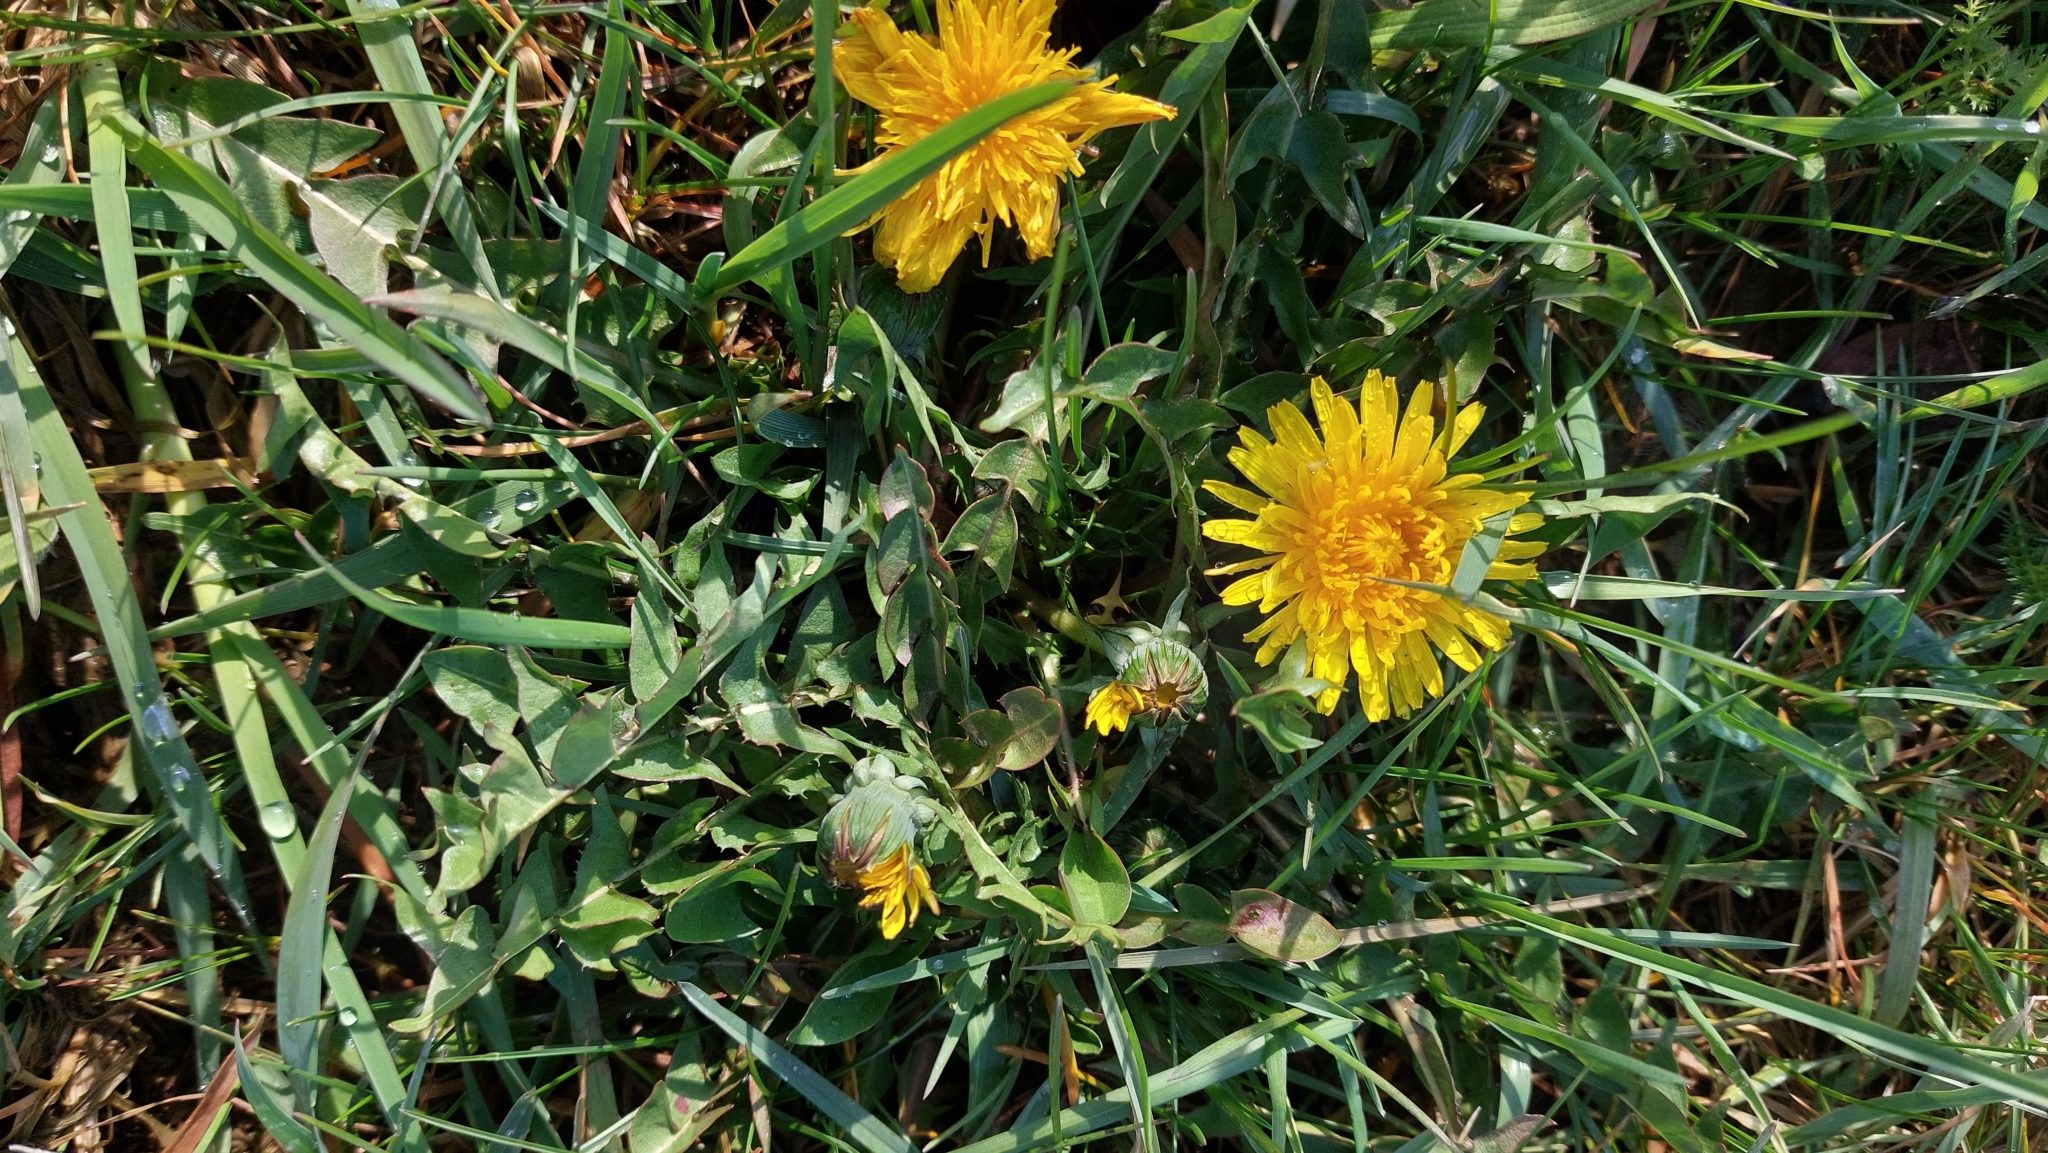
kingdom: Plantae
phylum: Tracheophyta
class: Magnoliopsida
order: Asterales
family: Asteraceae
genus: Taraxacum
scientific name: Taraxacum
